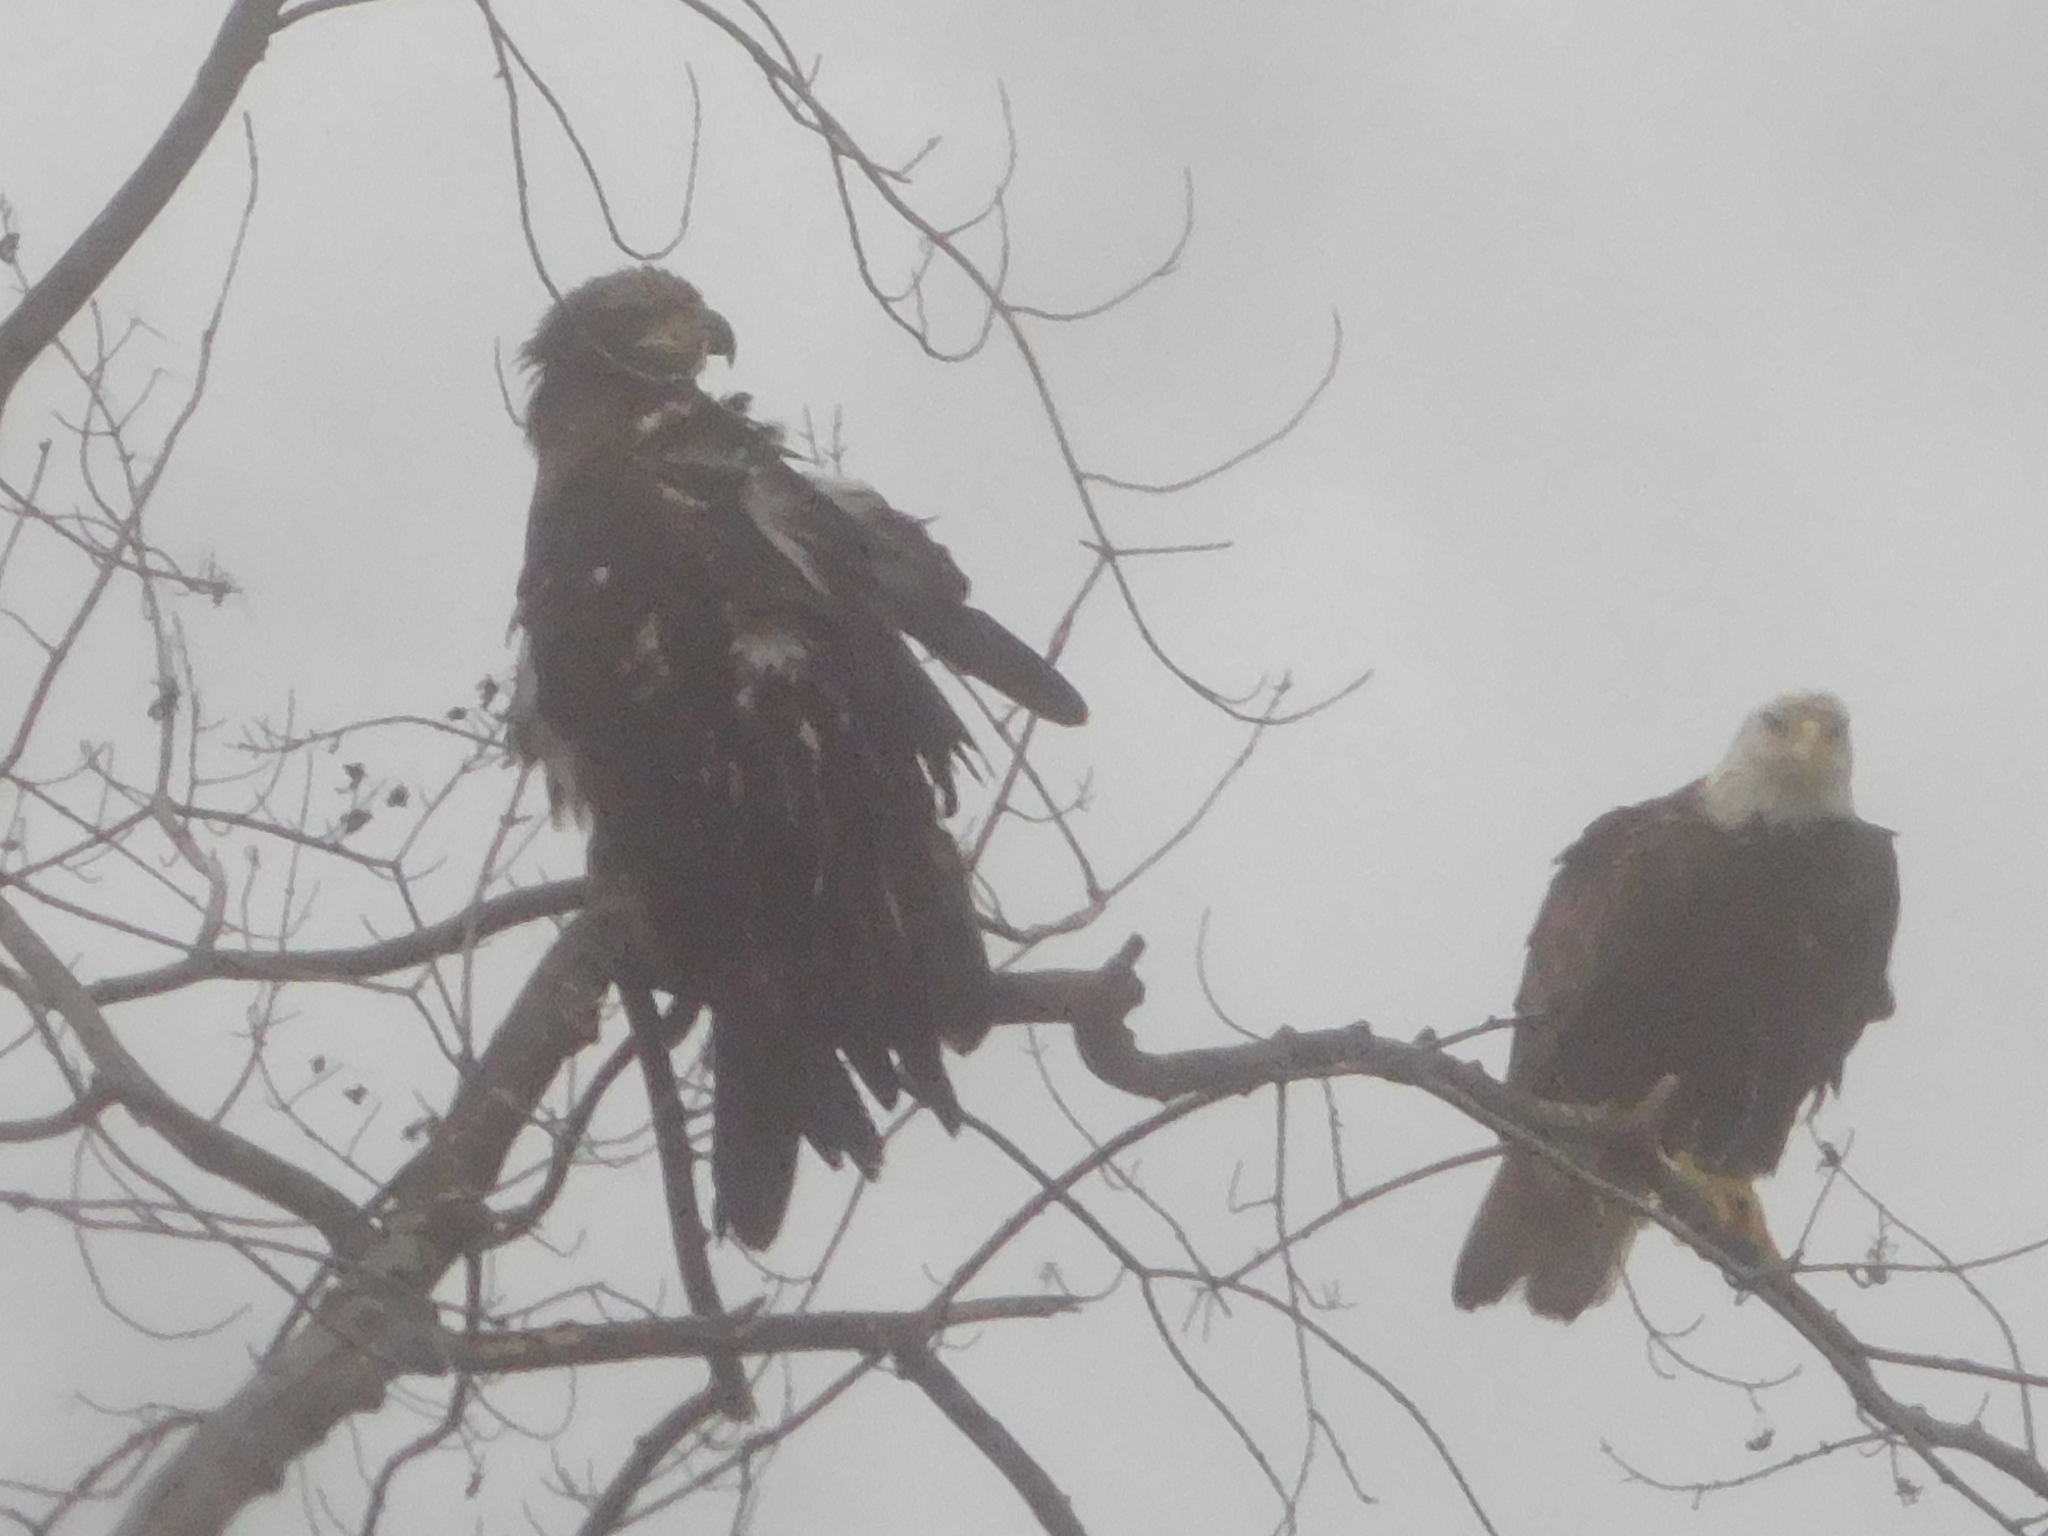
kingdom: Animalia
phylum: Chordata
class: Aves
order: Accipitriformes
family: Accipitridae
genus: Haliaeetus
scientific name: Haliaeetus leucocephalus
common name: Bald eagle
